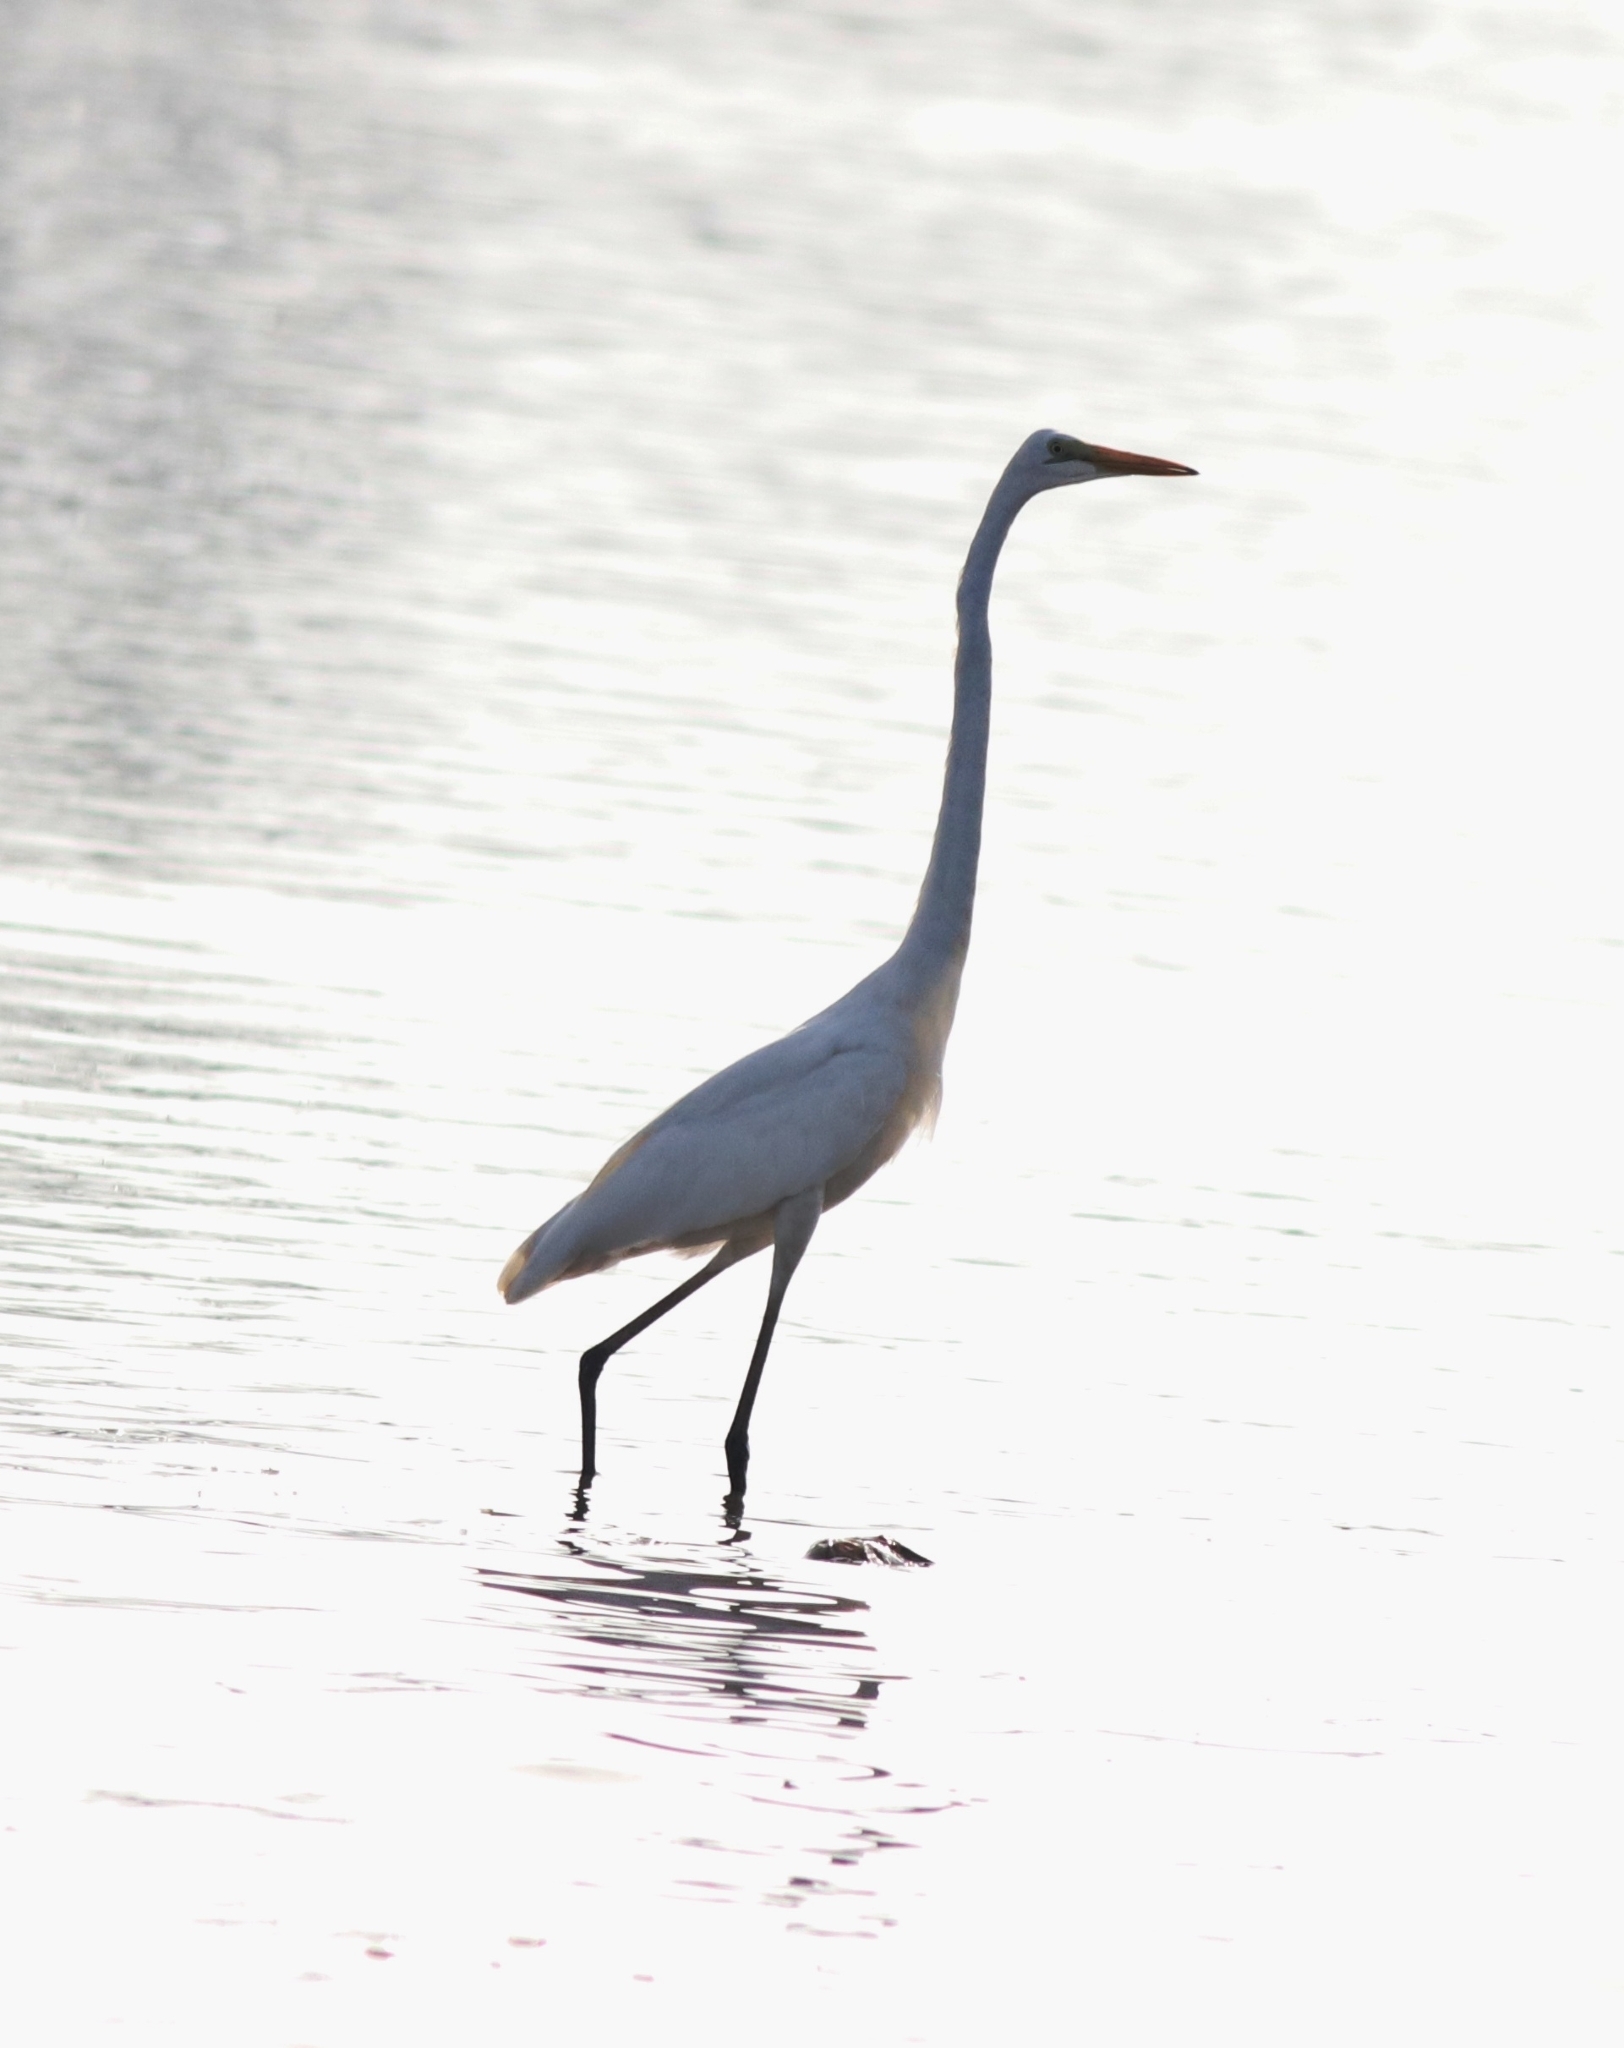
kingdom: Animalia
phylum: Chordata
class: Aves
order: Pelecaniformes
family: Ardeidae
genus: Ardea
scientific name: Ardea alba
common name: Great egret
